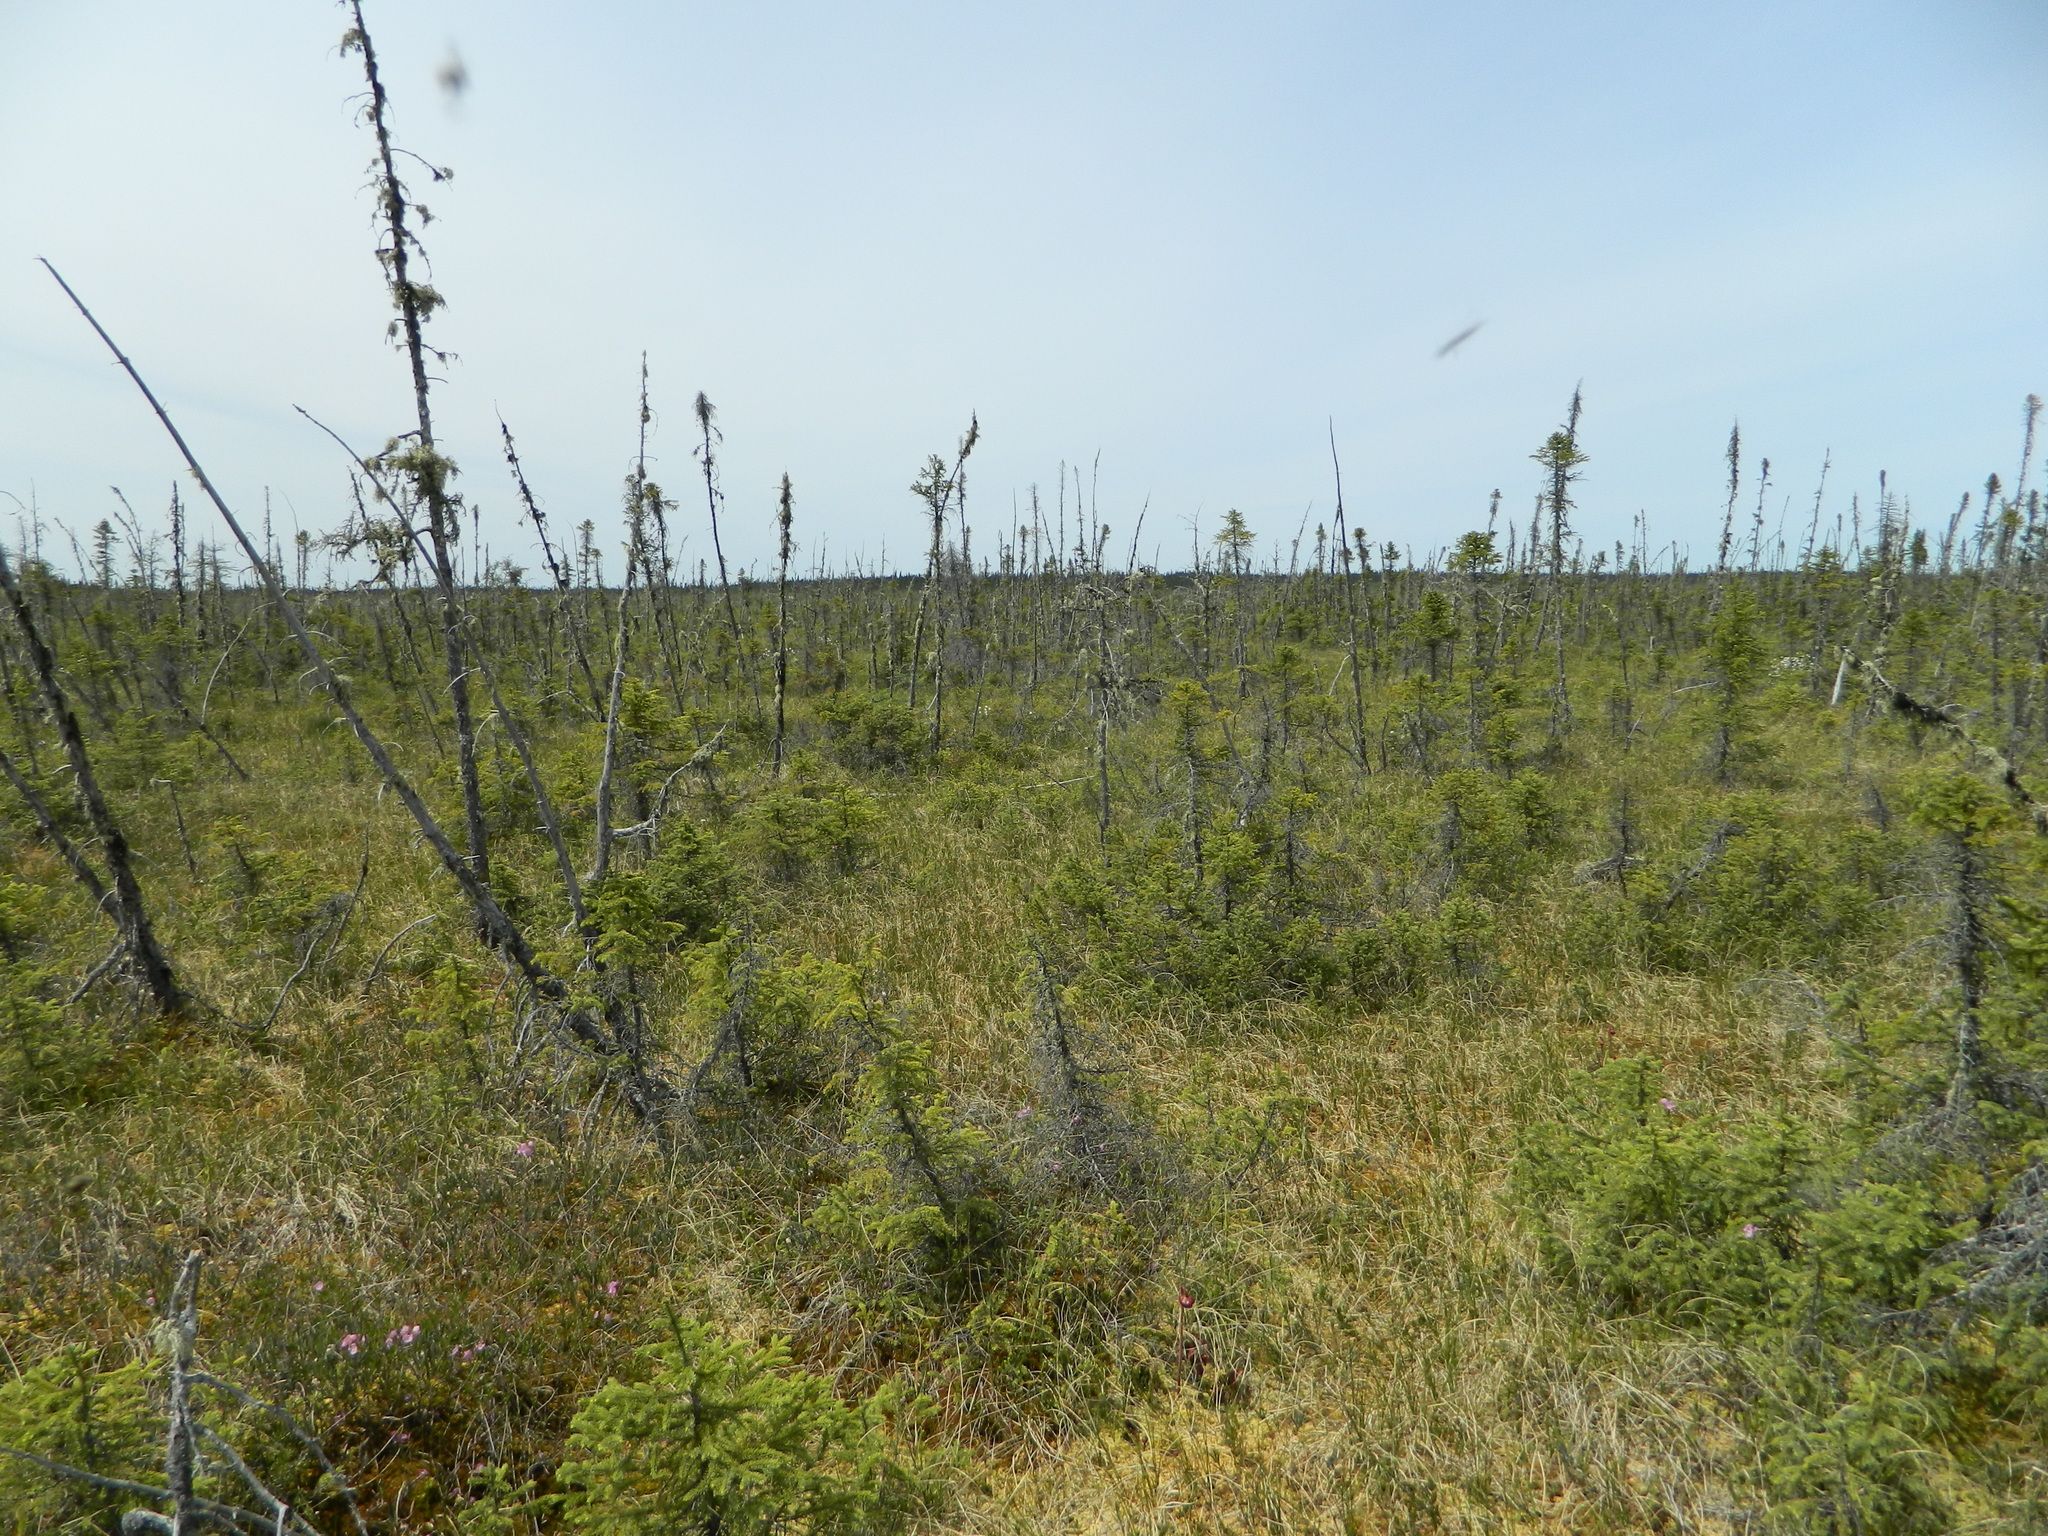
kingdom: Plantae
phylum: Tracheophyta
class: Pinopsida
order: Pinales
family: Pinaceae
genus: Picea
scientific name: Picea mariana
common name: Black spruce
